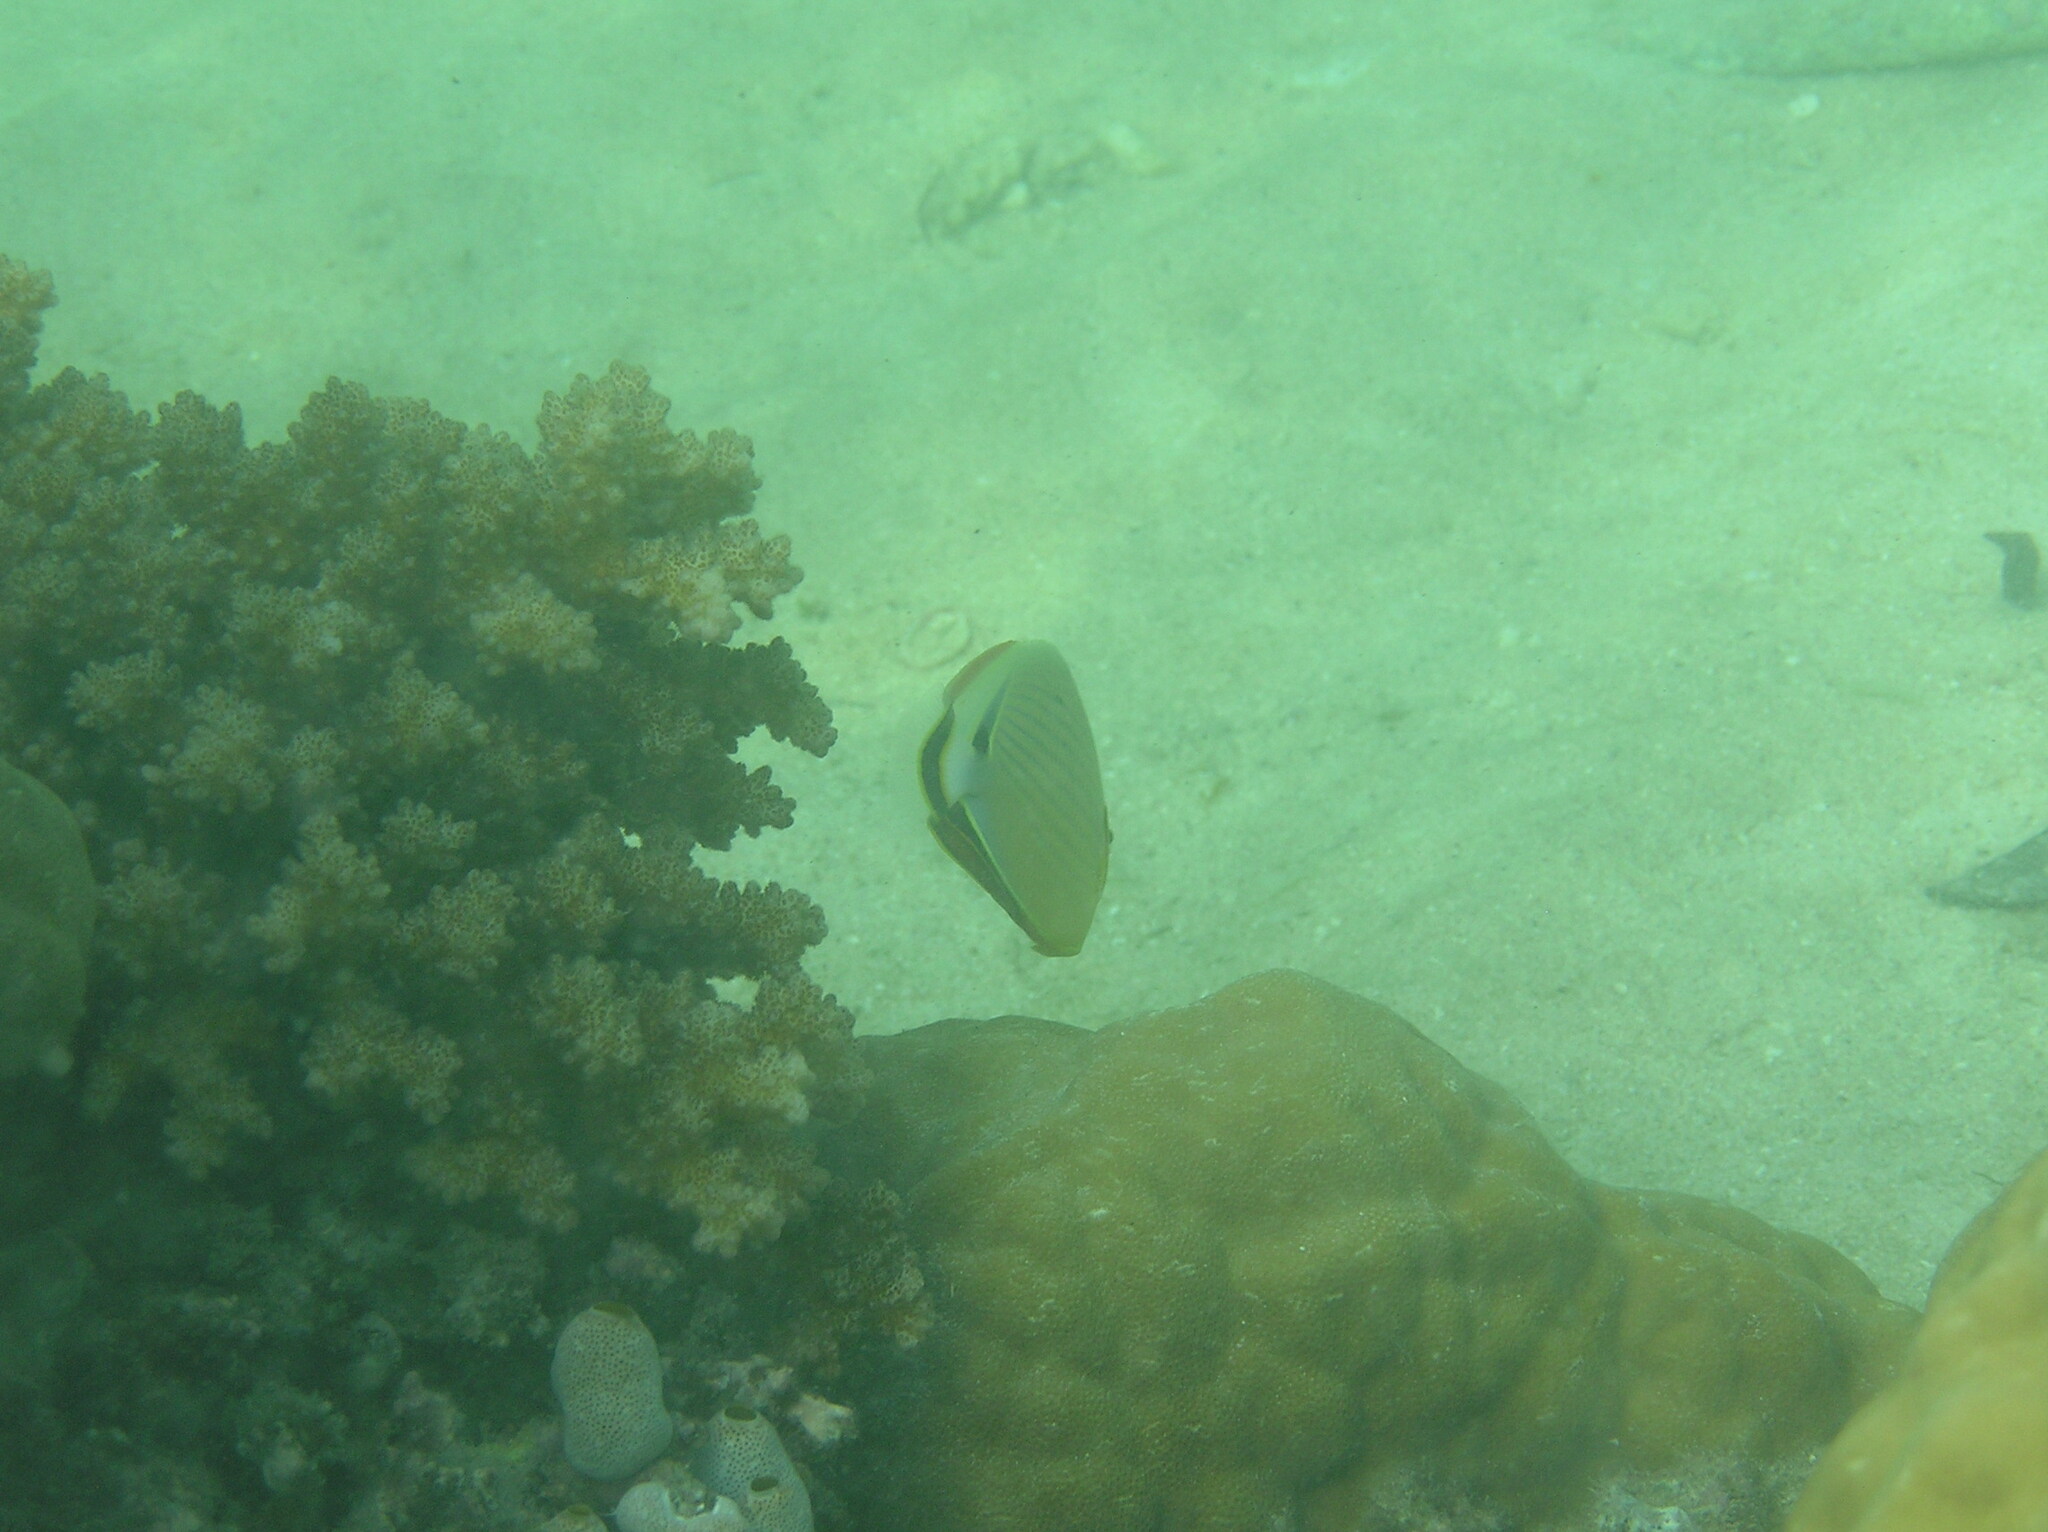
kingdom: Animalia
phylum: Chordata
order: Perciformes
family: Chaetodontidae
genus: Chaetodon
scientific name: Chaetodon lunulatus
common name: Redfin butterflyfish
